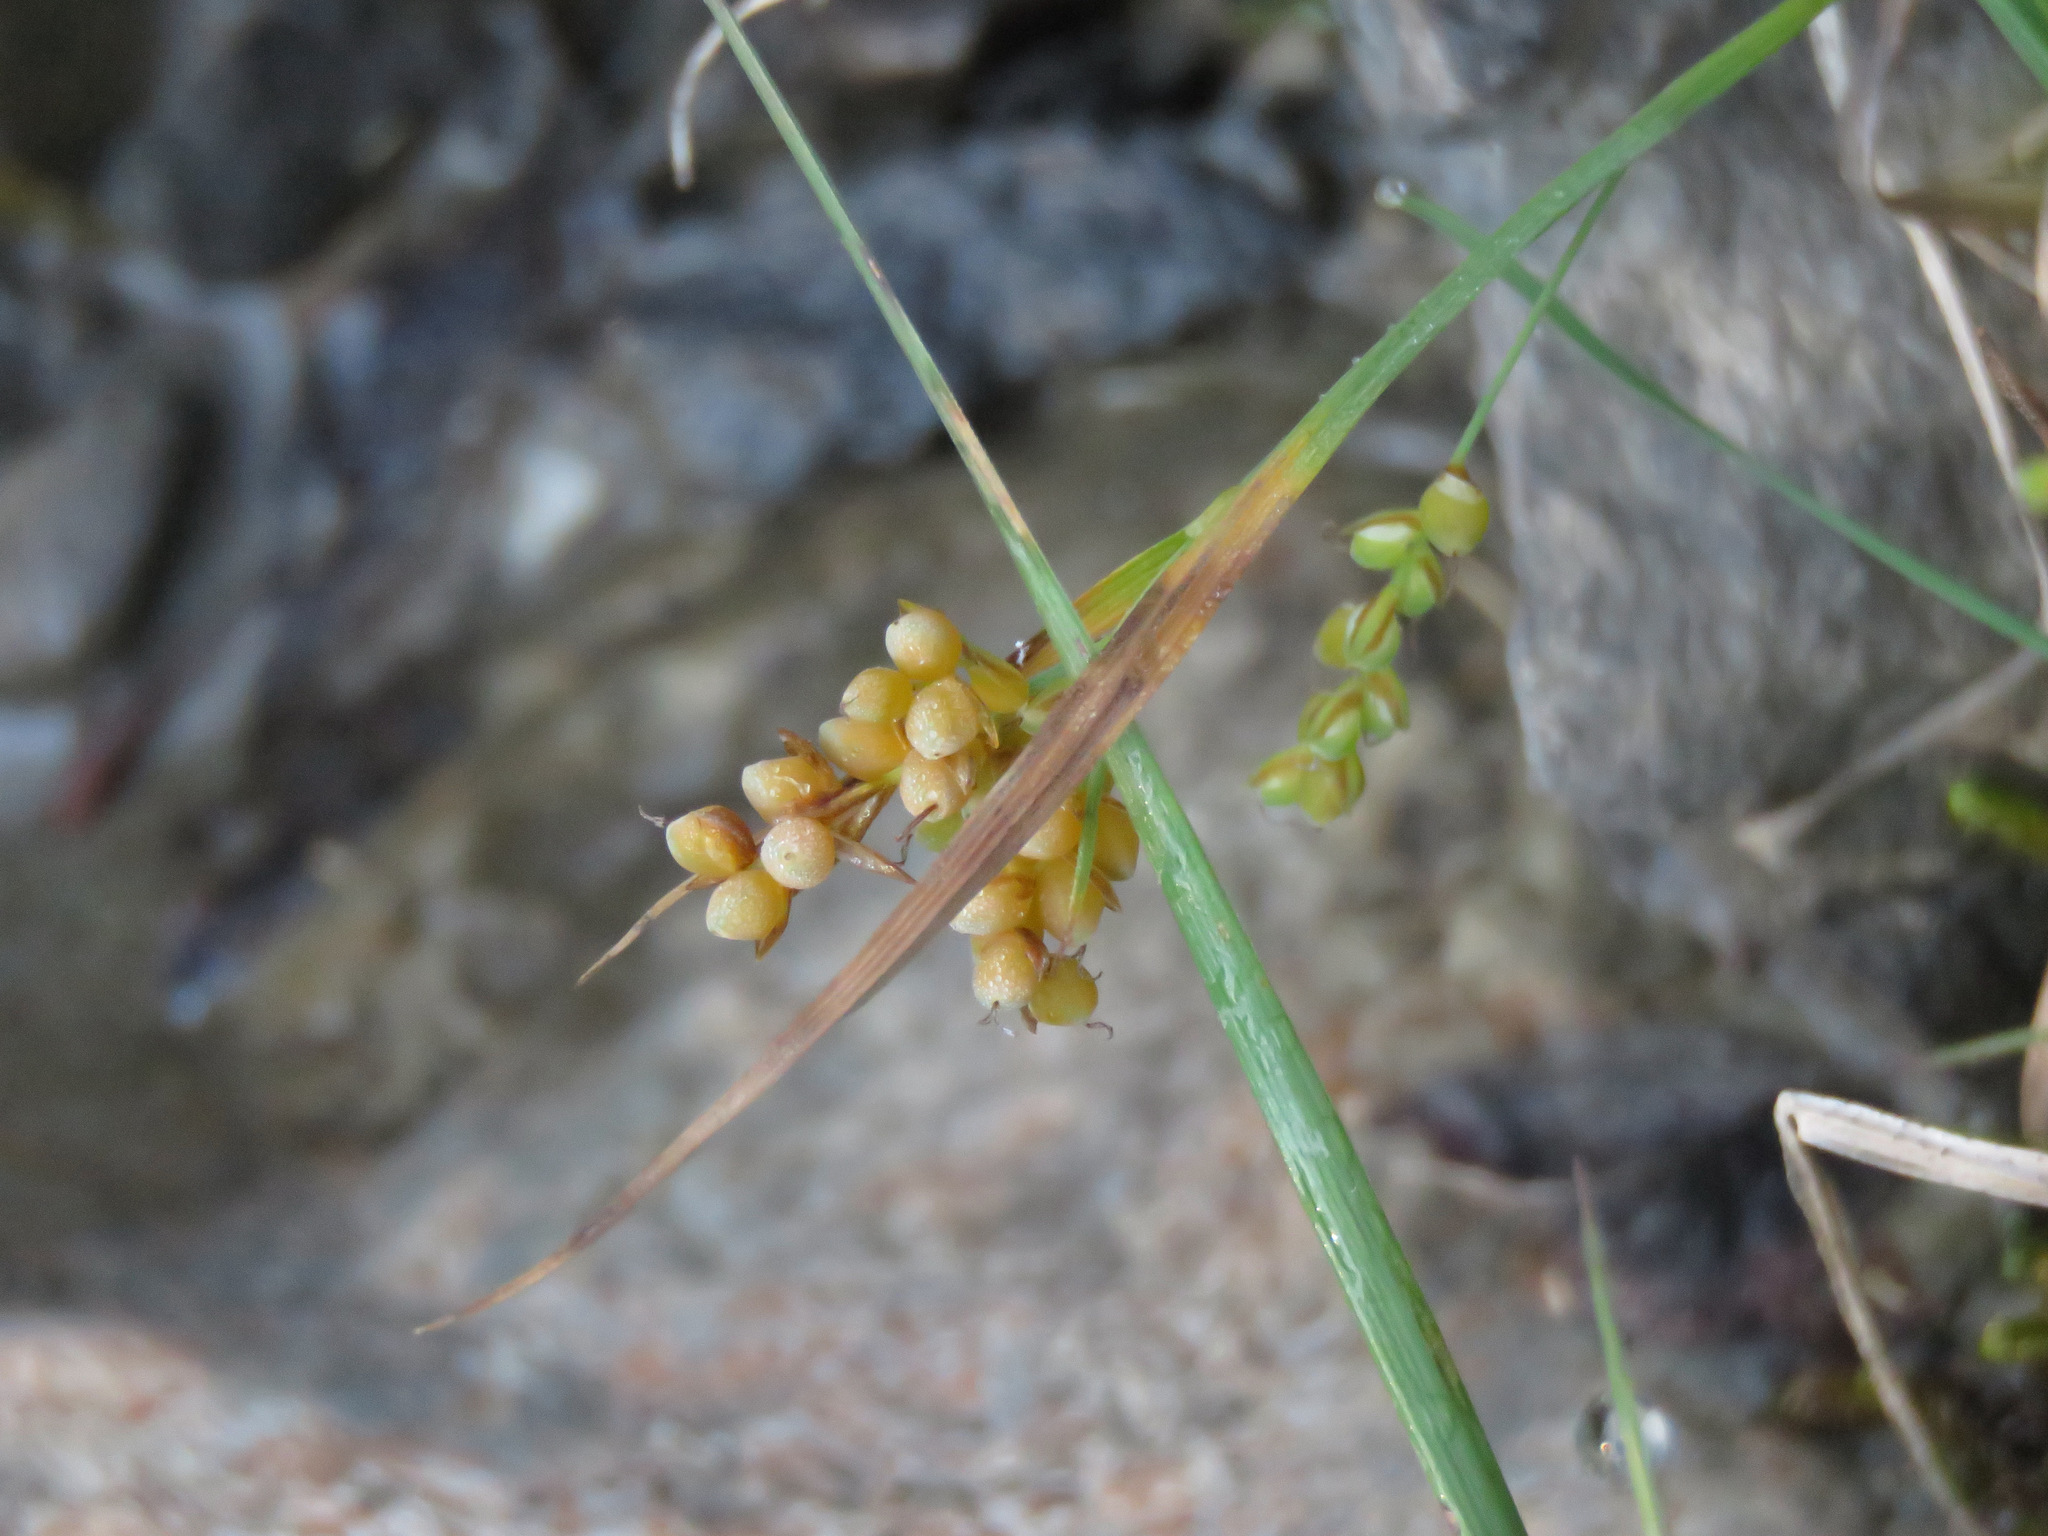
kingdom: Plantae
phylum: Tracheophyta
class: Liliopsida
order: Poales
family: Cyperaceae
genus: Carex
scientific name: Carex aurea
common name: Golden sedge
